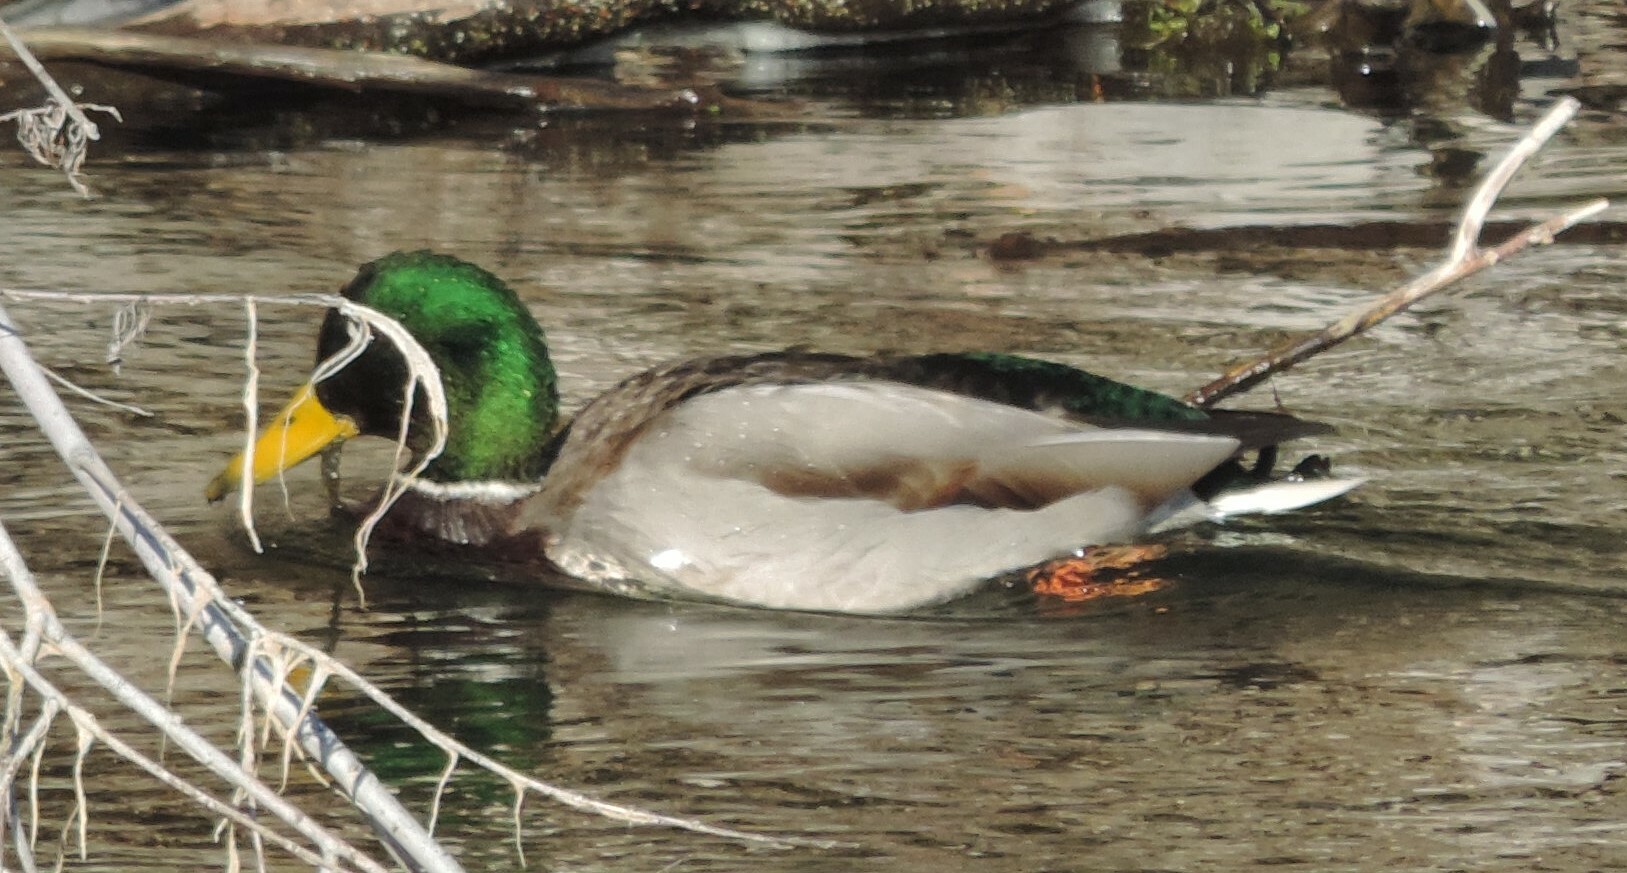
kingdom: Animalia
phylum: Chordata
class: Aves
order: Anseriformes
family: Anatidae
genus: Anas
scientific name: Anas platyrhynchos
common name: Mallard
